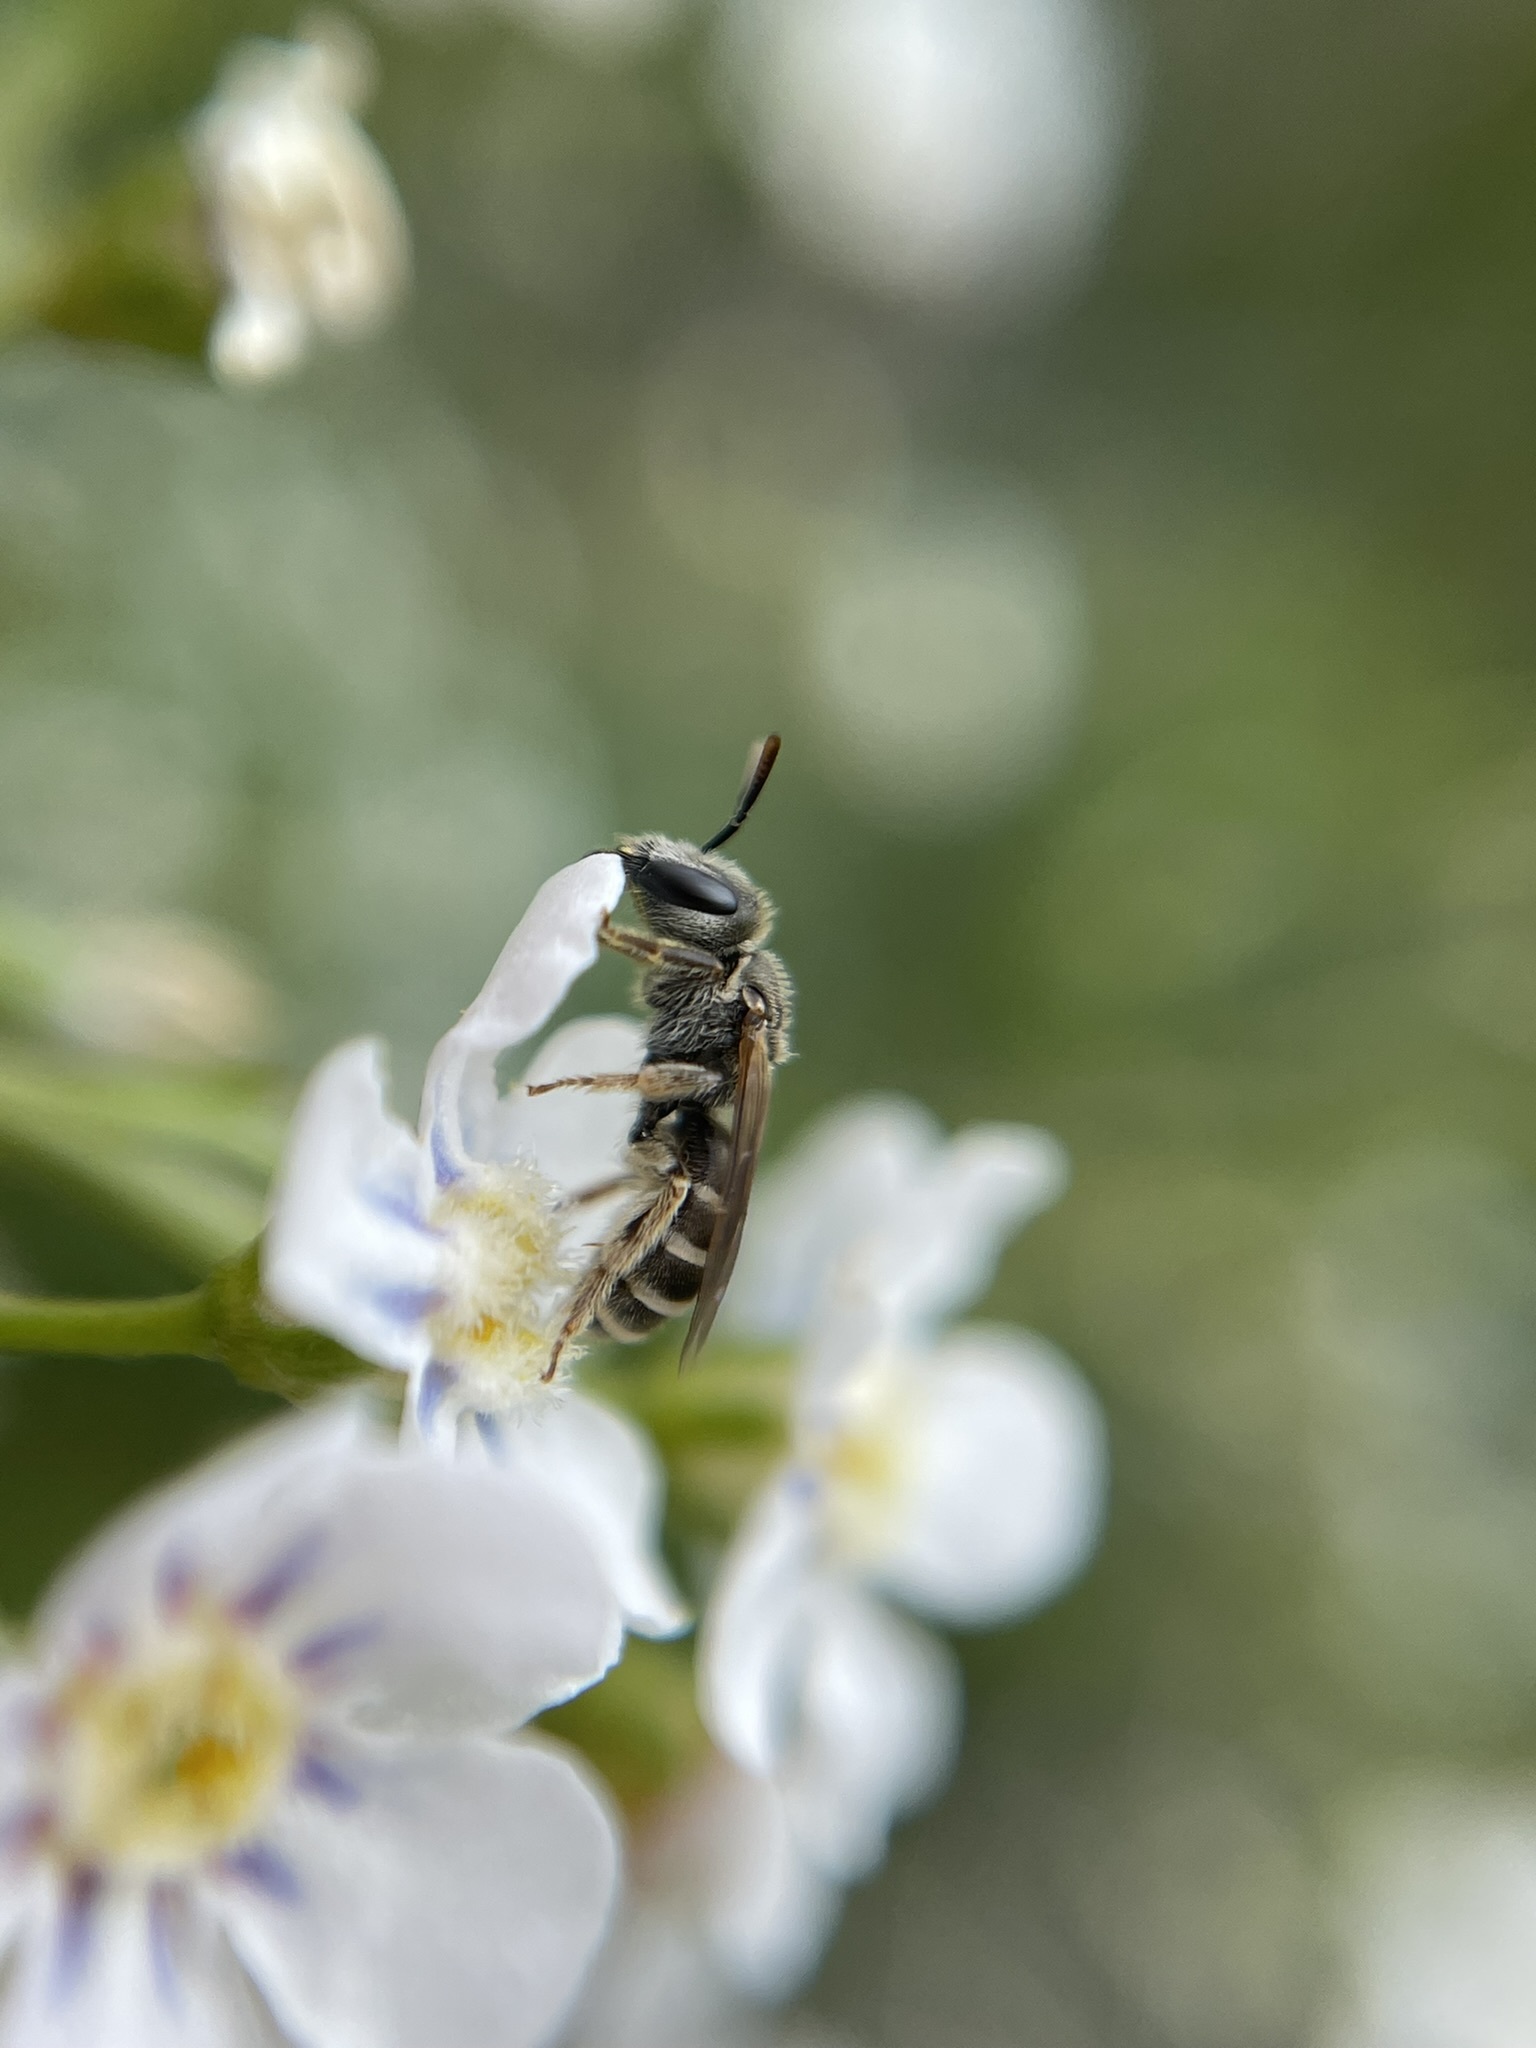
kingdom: Animalia
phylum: Arthropoda
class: Insecta
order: Hymenoptera
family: Halictidae
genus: Halictus
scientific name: Halictus tripartitus
